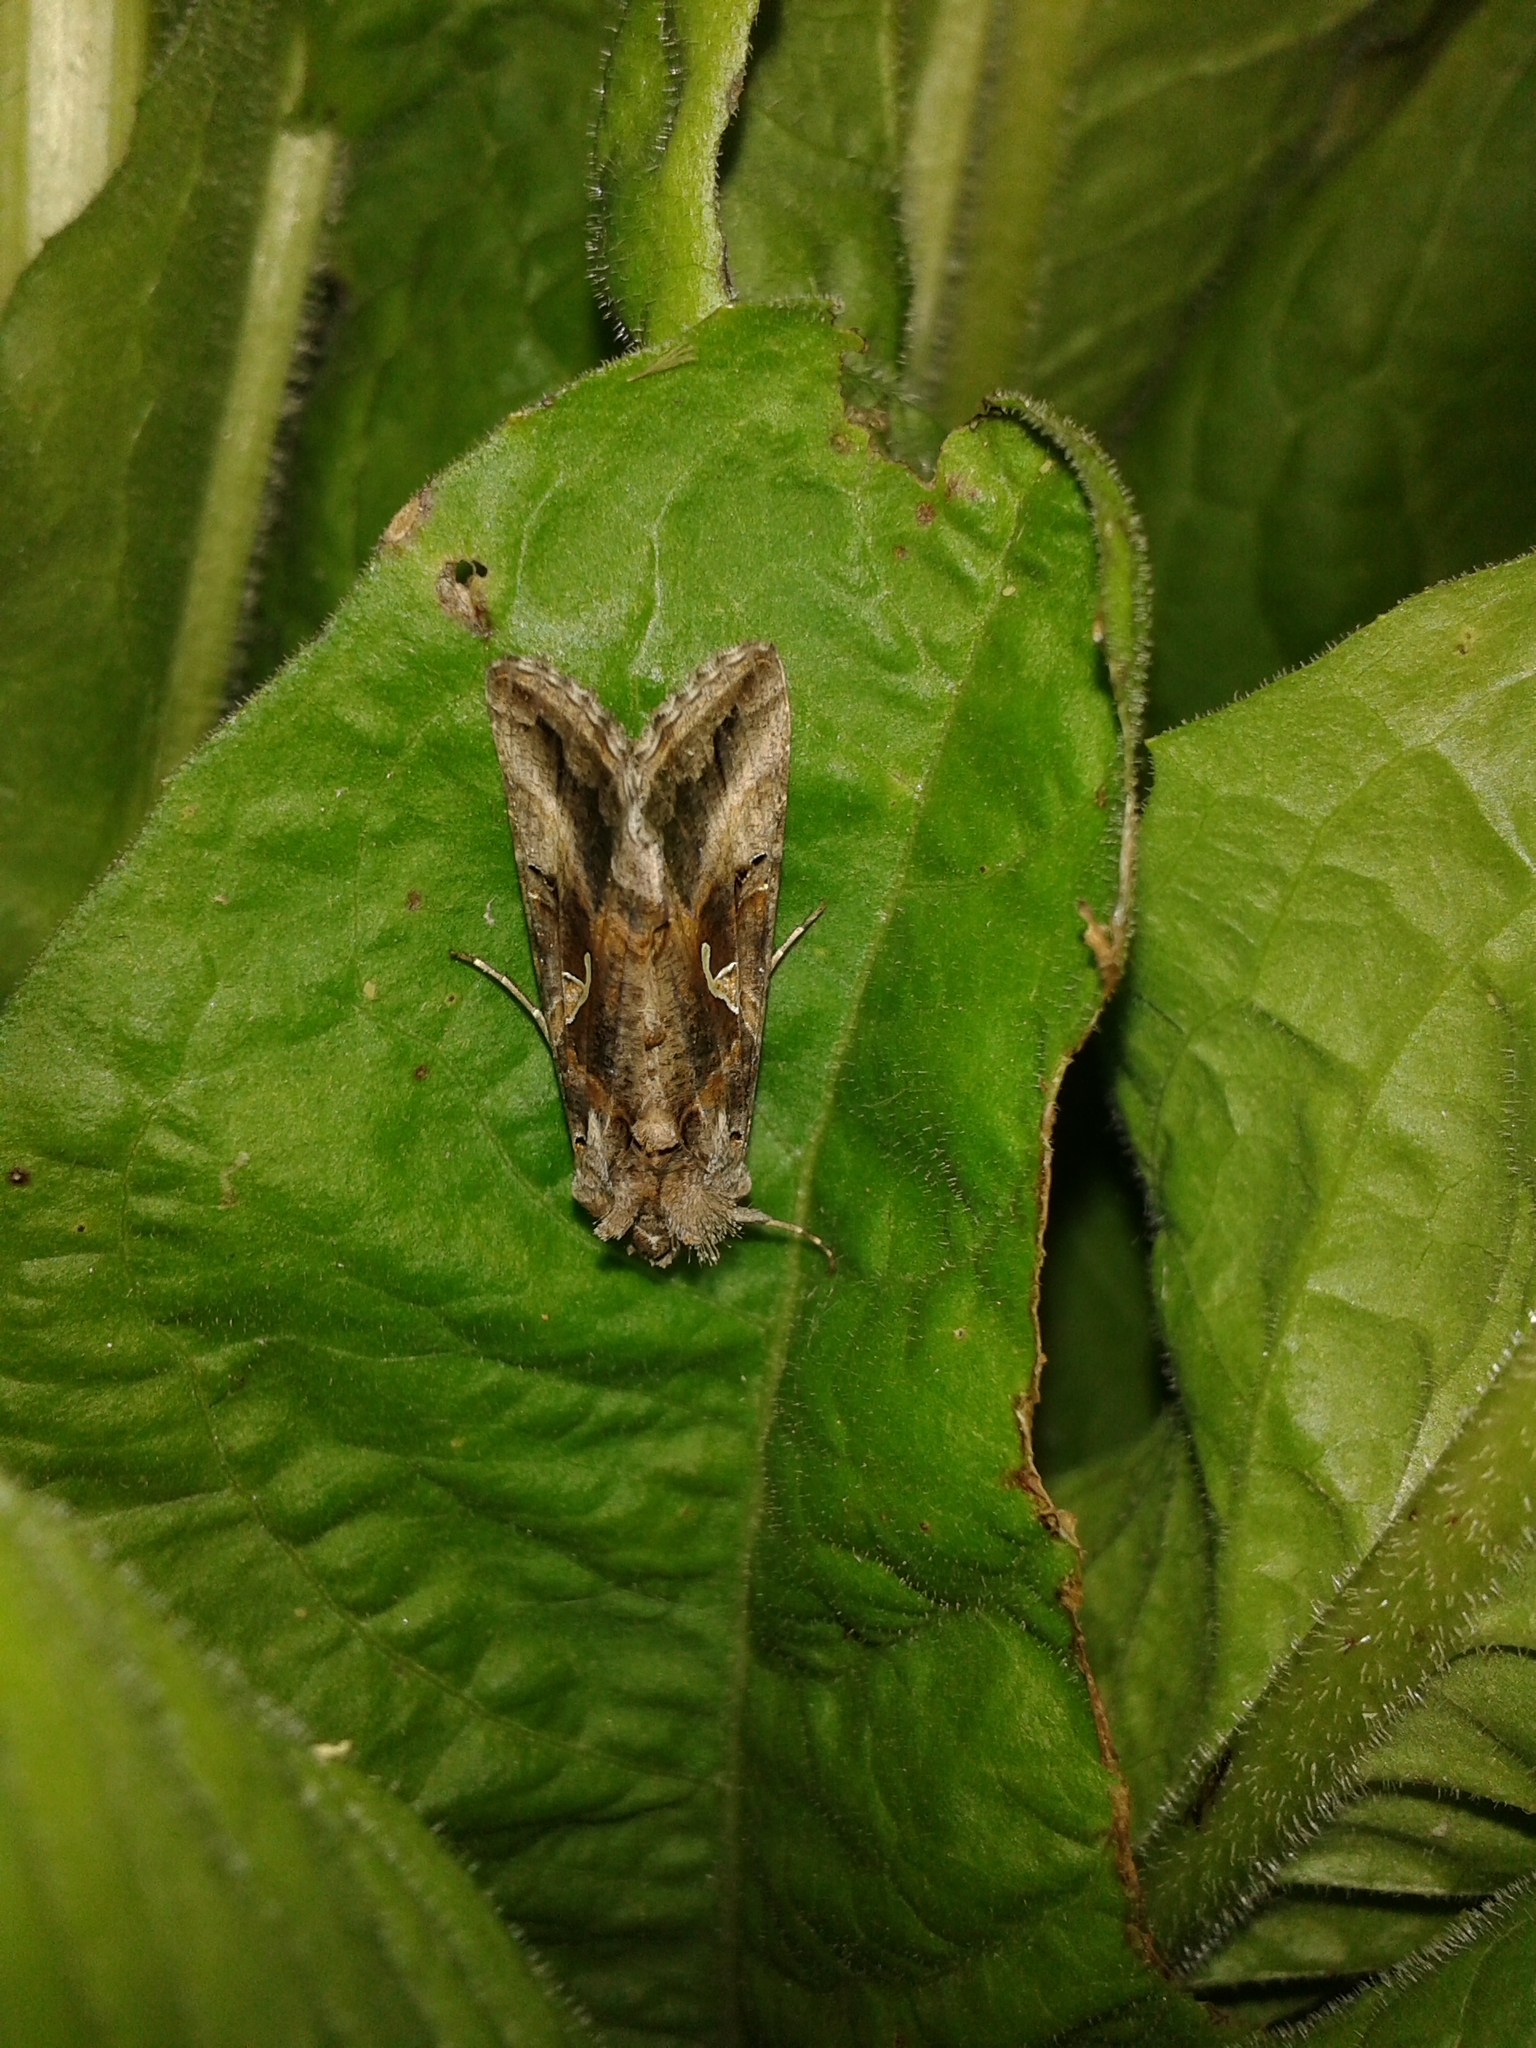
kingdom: Animalia
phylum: Arthropoda
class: Insecta
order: Lepidoptera
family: Noctuidae
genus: Autographa
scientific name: Autographa gamma
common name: Silver y
